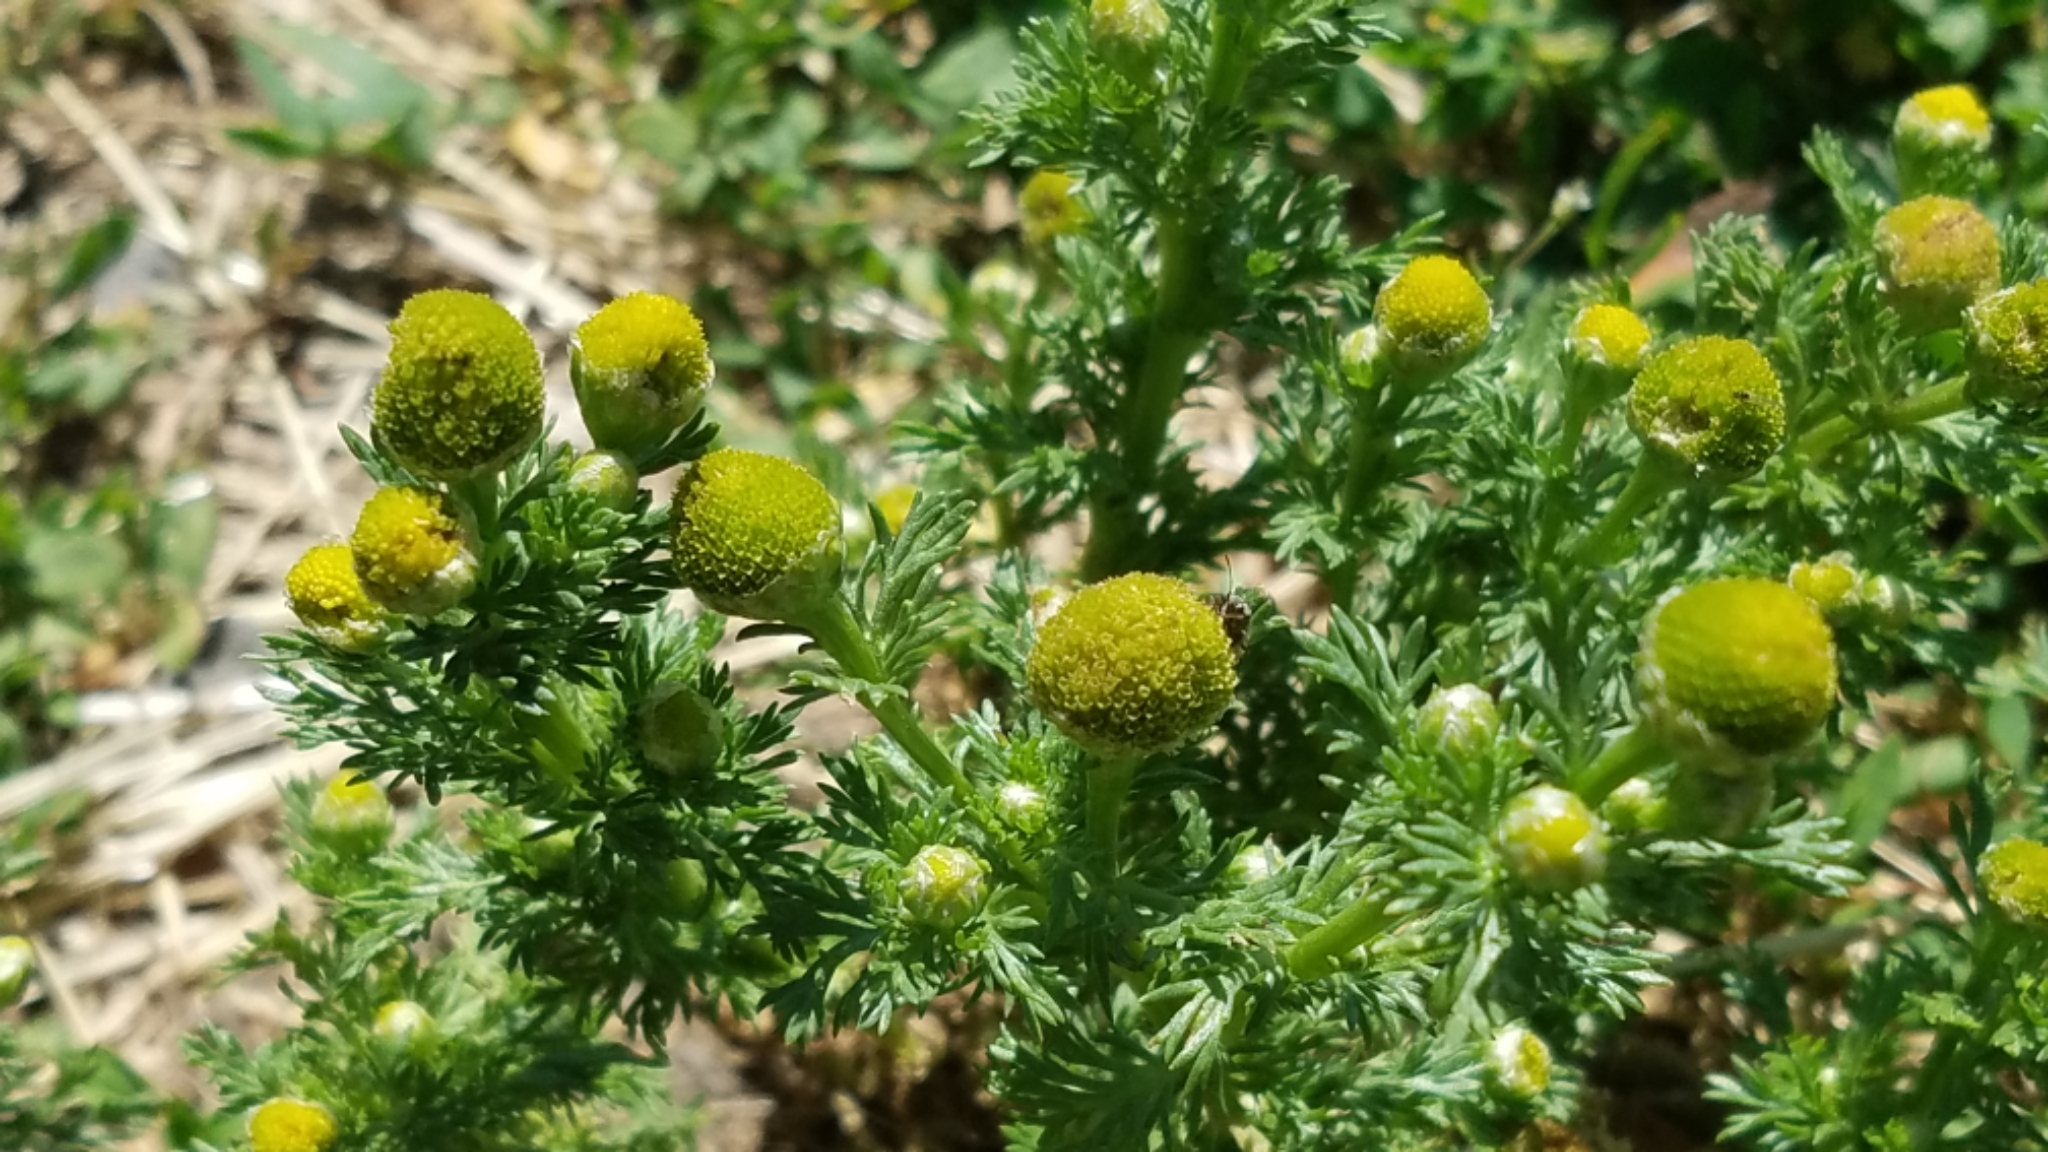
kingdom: Plantae
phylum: Tracheophyta
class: Magnoliopsida
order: Asterales
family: Asteraceae
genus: Matricaria
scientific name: Matricaria discoidea
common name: Disc mayweed
